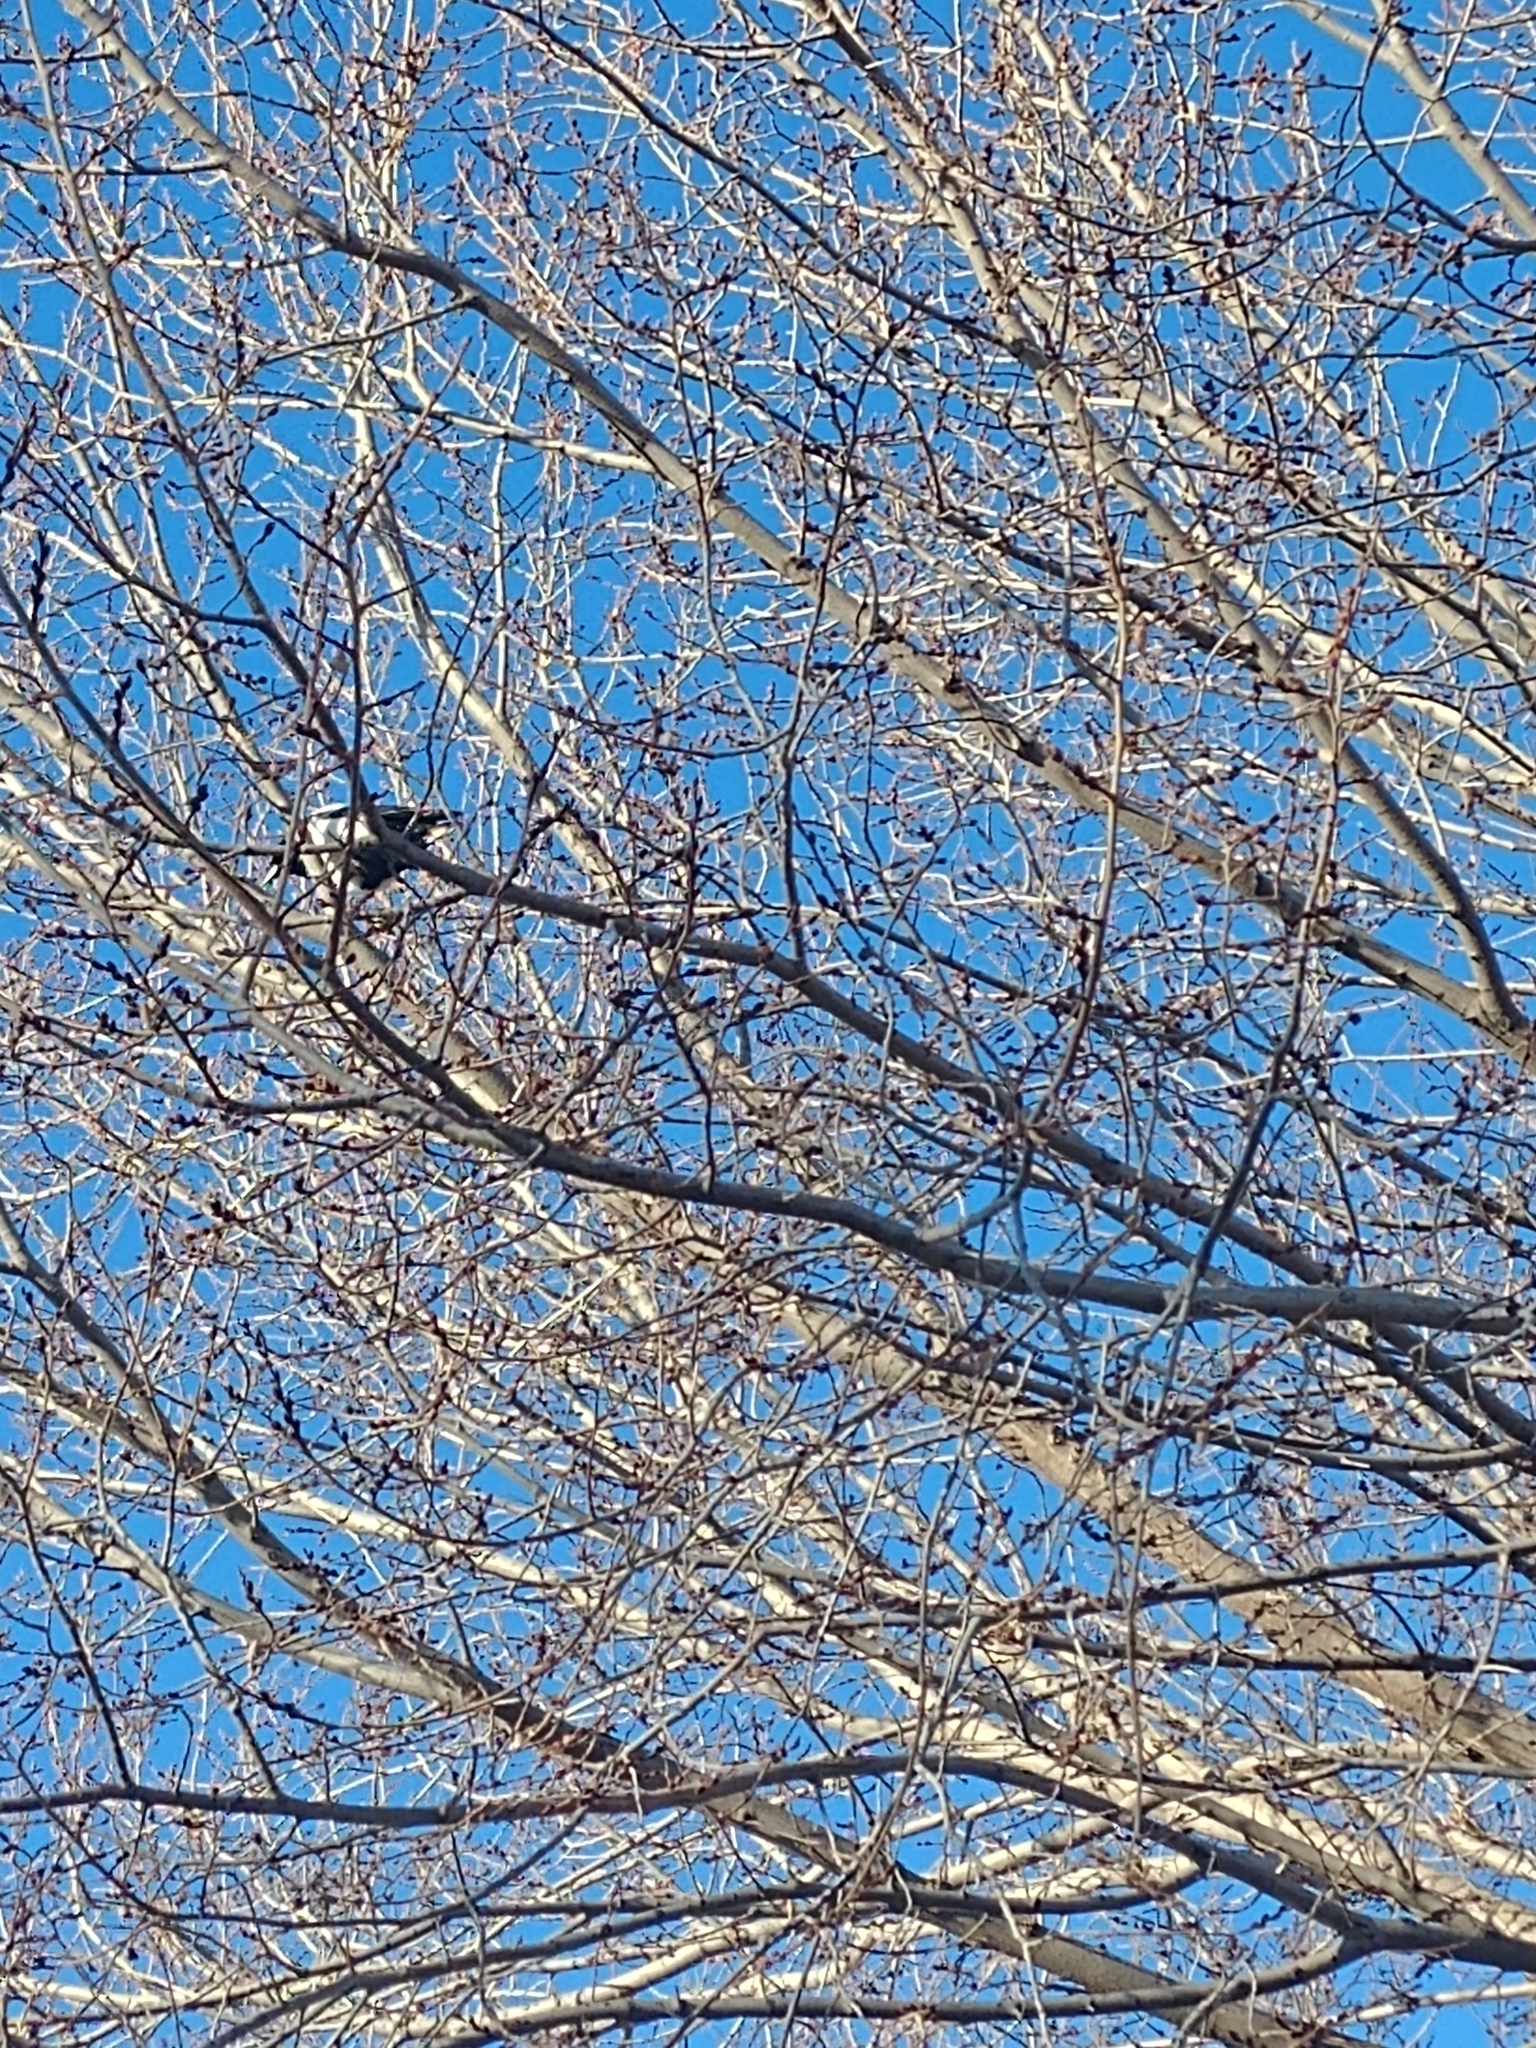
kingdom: Animalia
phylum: Chordata
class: Aves
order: Passeriformes
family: Corvidae
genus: Pica
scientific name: Pica hudsonia
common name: Black-billed magpie
